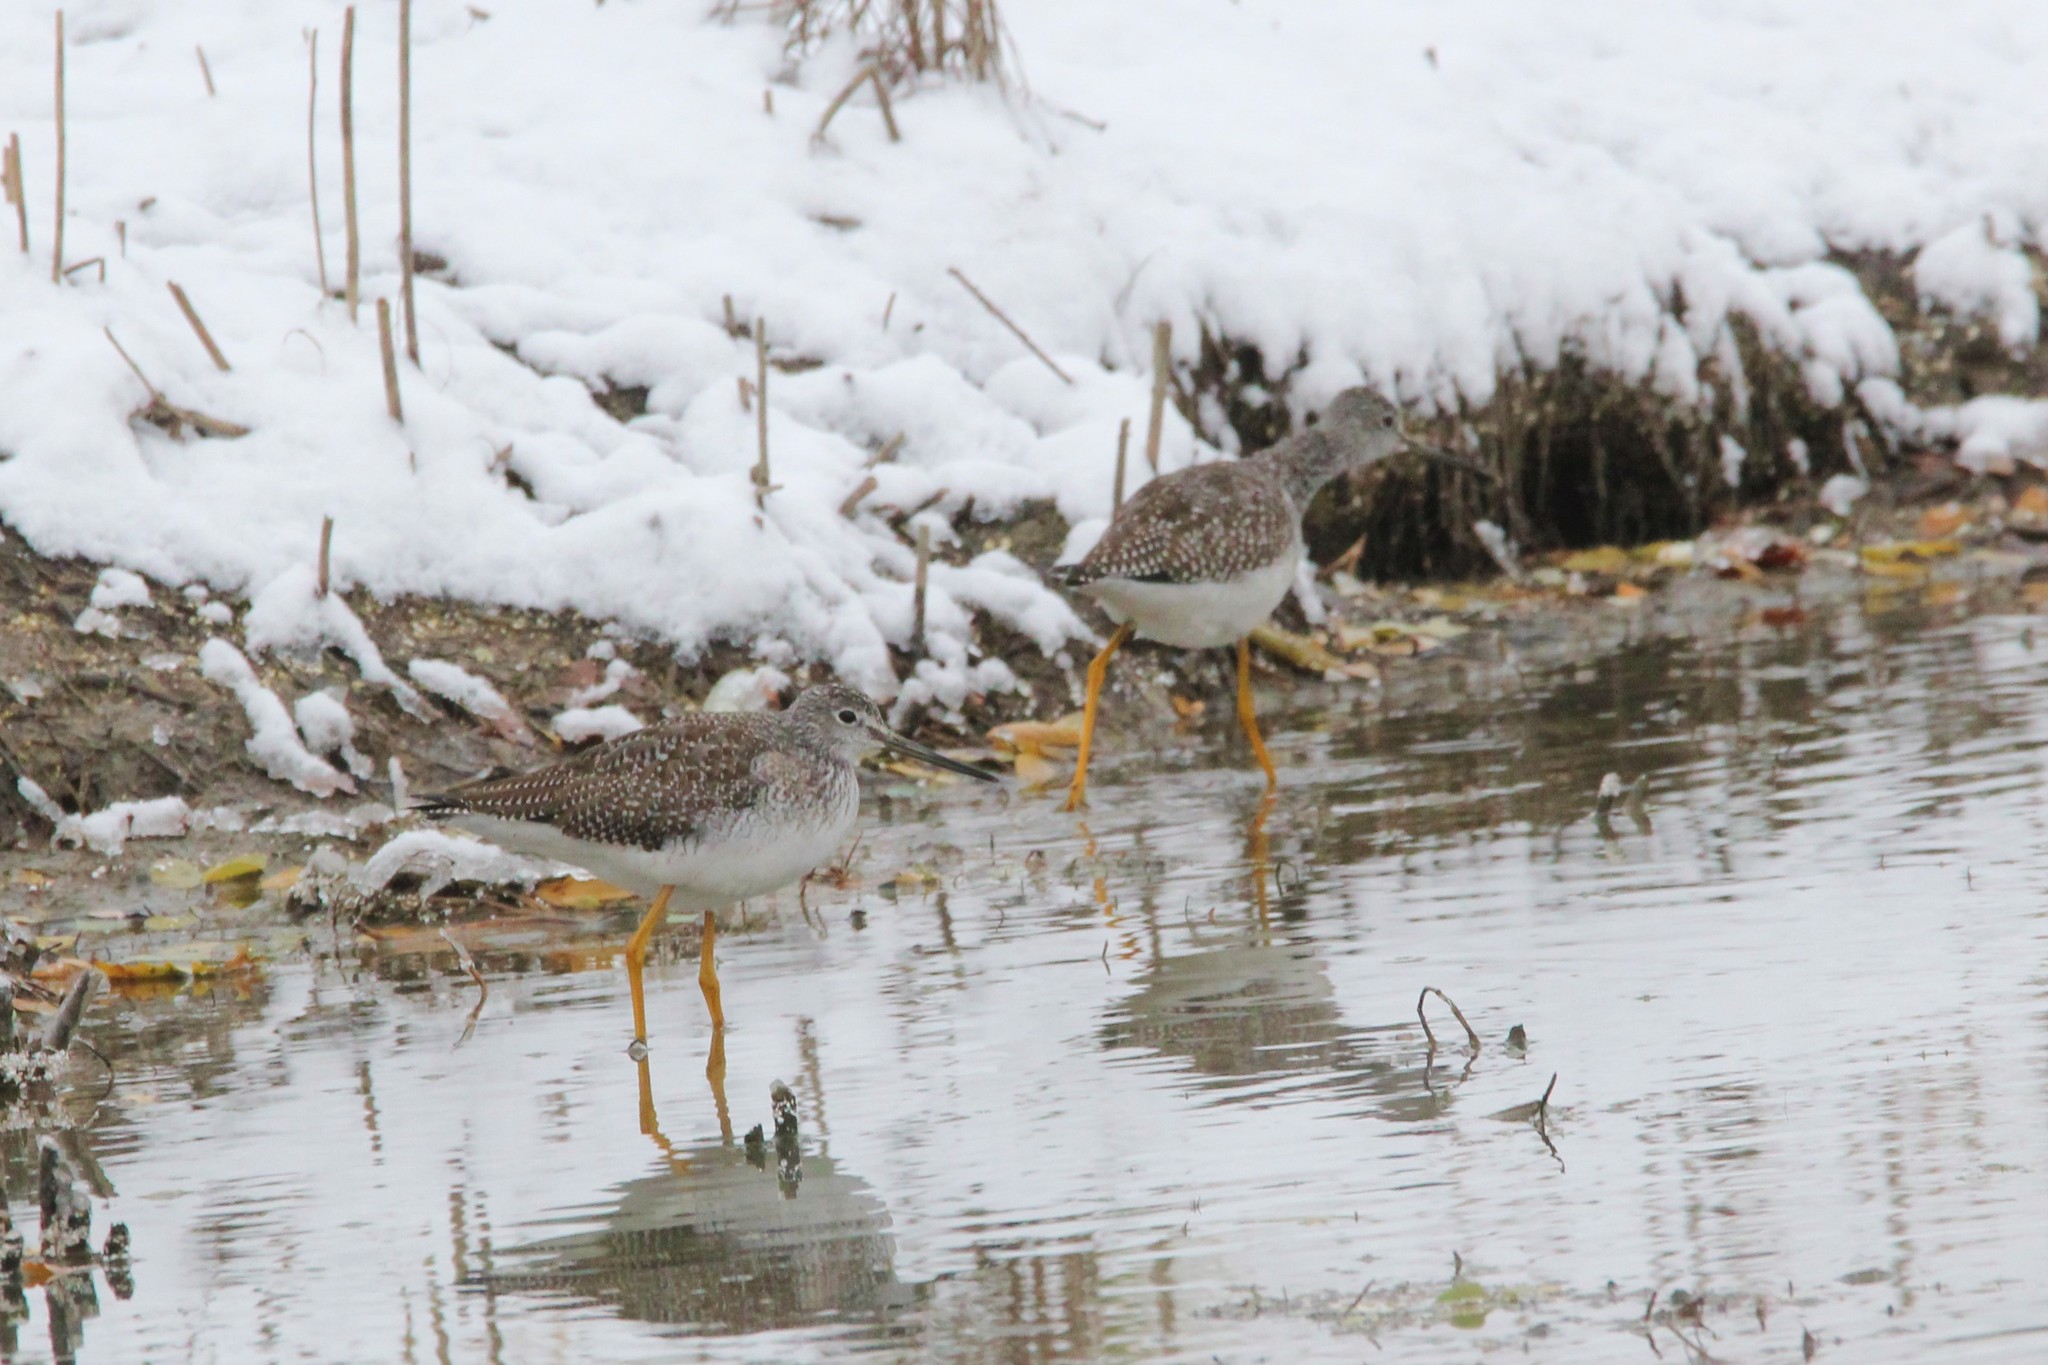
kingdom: Animalia
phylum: Chordata
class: Aves
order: Charadriiformes
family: Scolopacidae
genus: Tringa
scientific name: Tringa melanoleuca
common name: Greater yellowlegs
